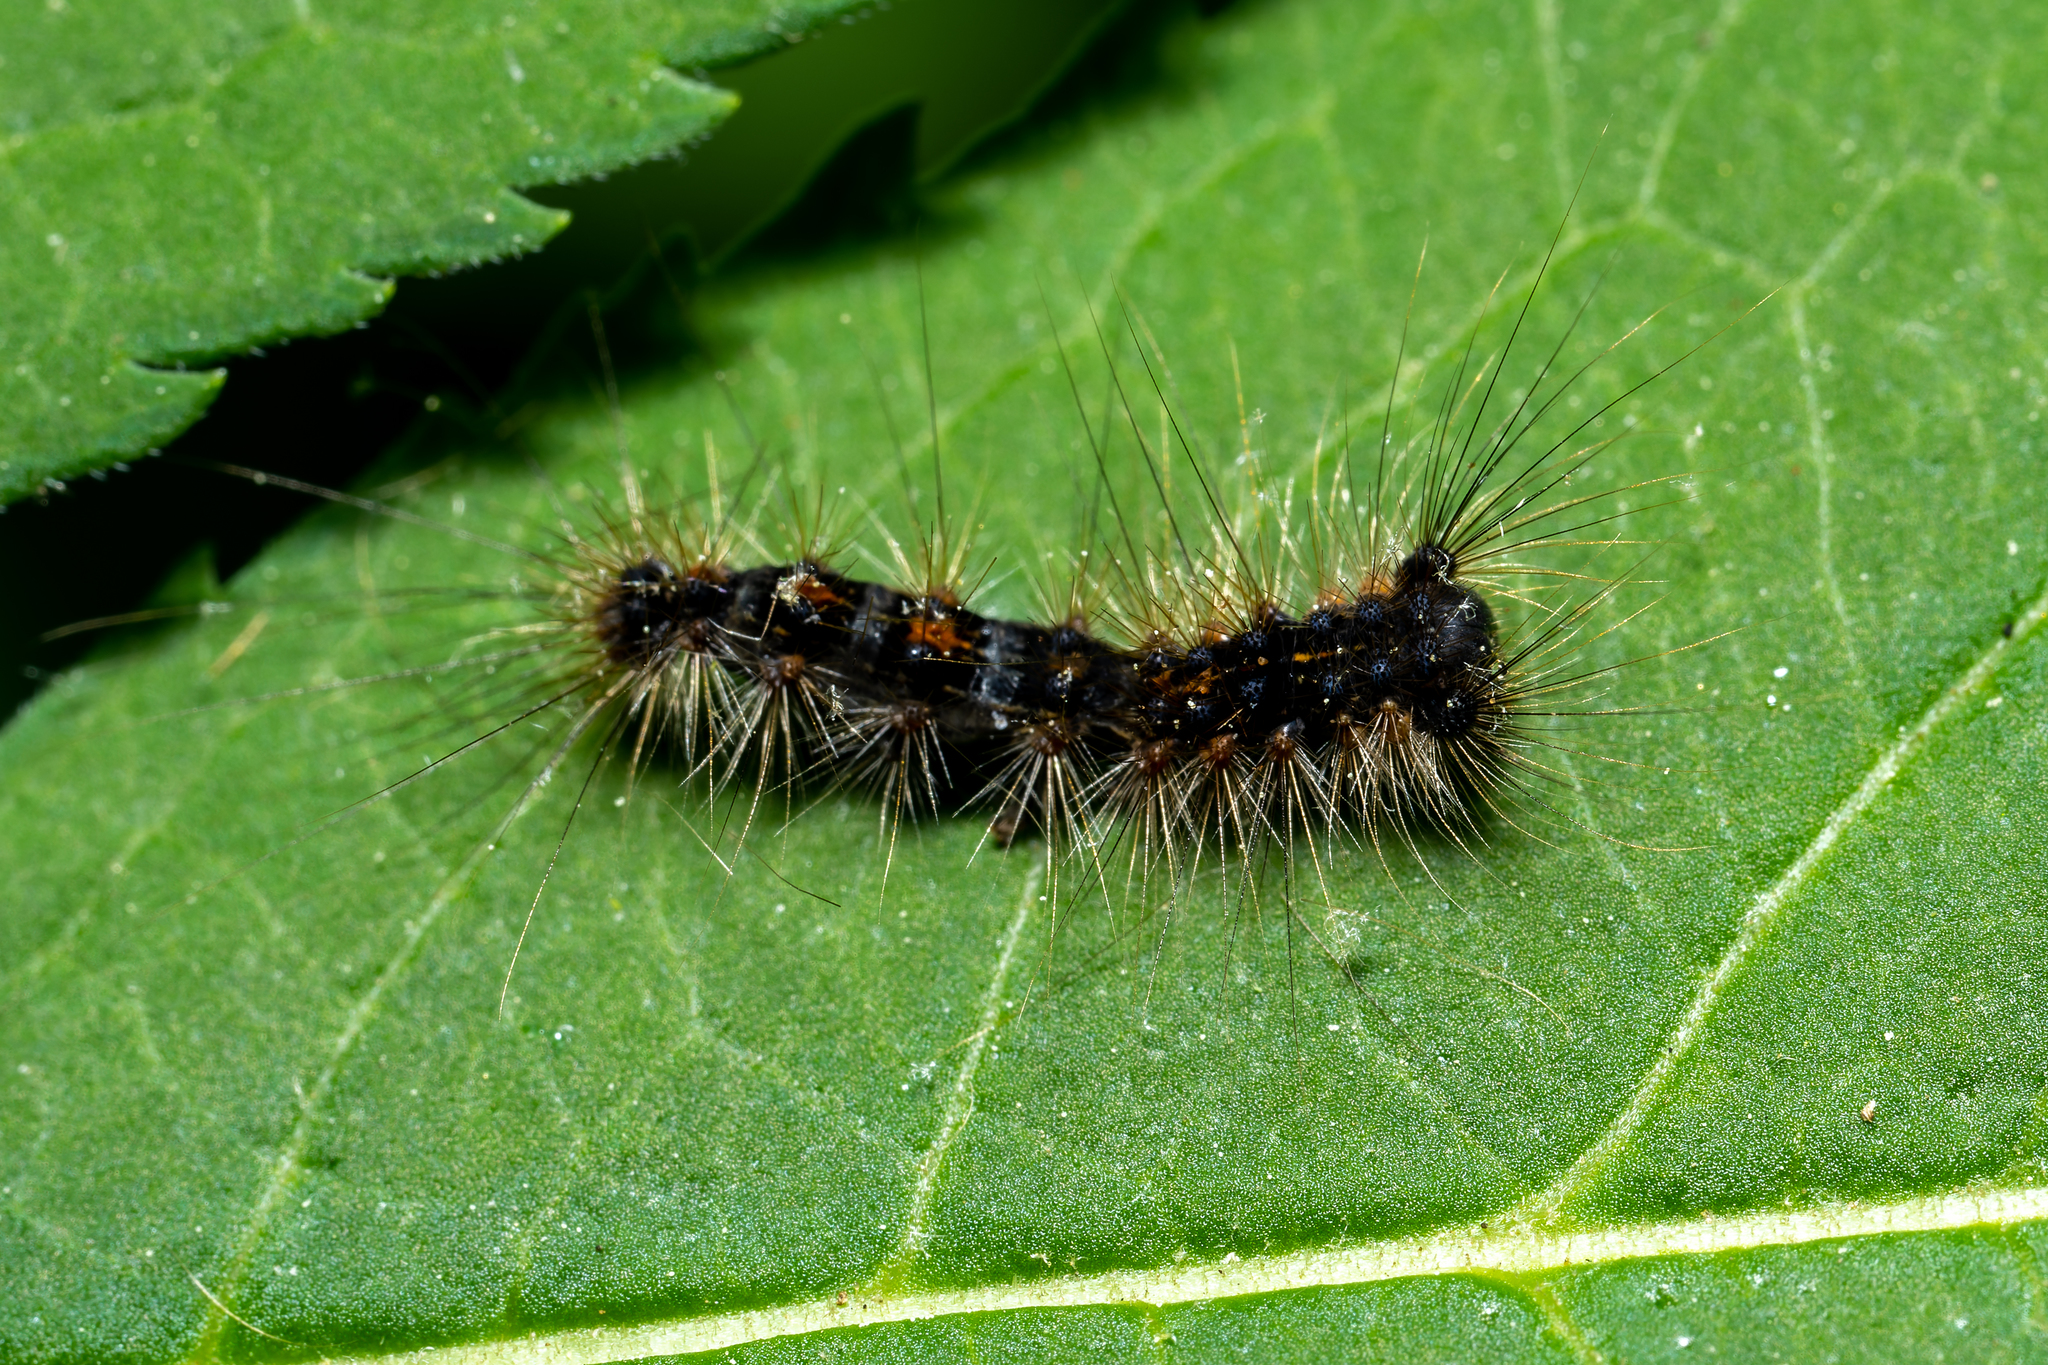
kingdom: Animalia
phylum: Arthropoda
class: Insecta
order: Lepidoptera
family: Erebidae
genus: Lymantria
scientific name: Lymantria dispar
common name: Gypsy moth
